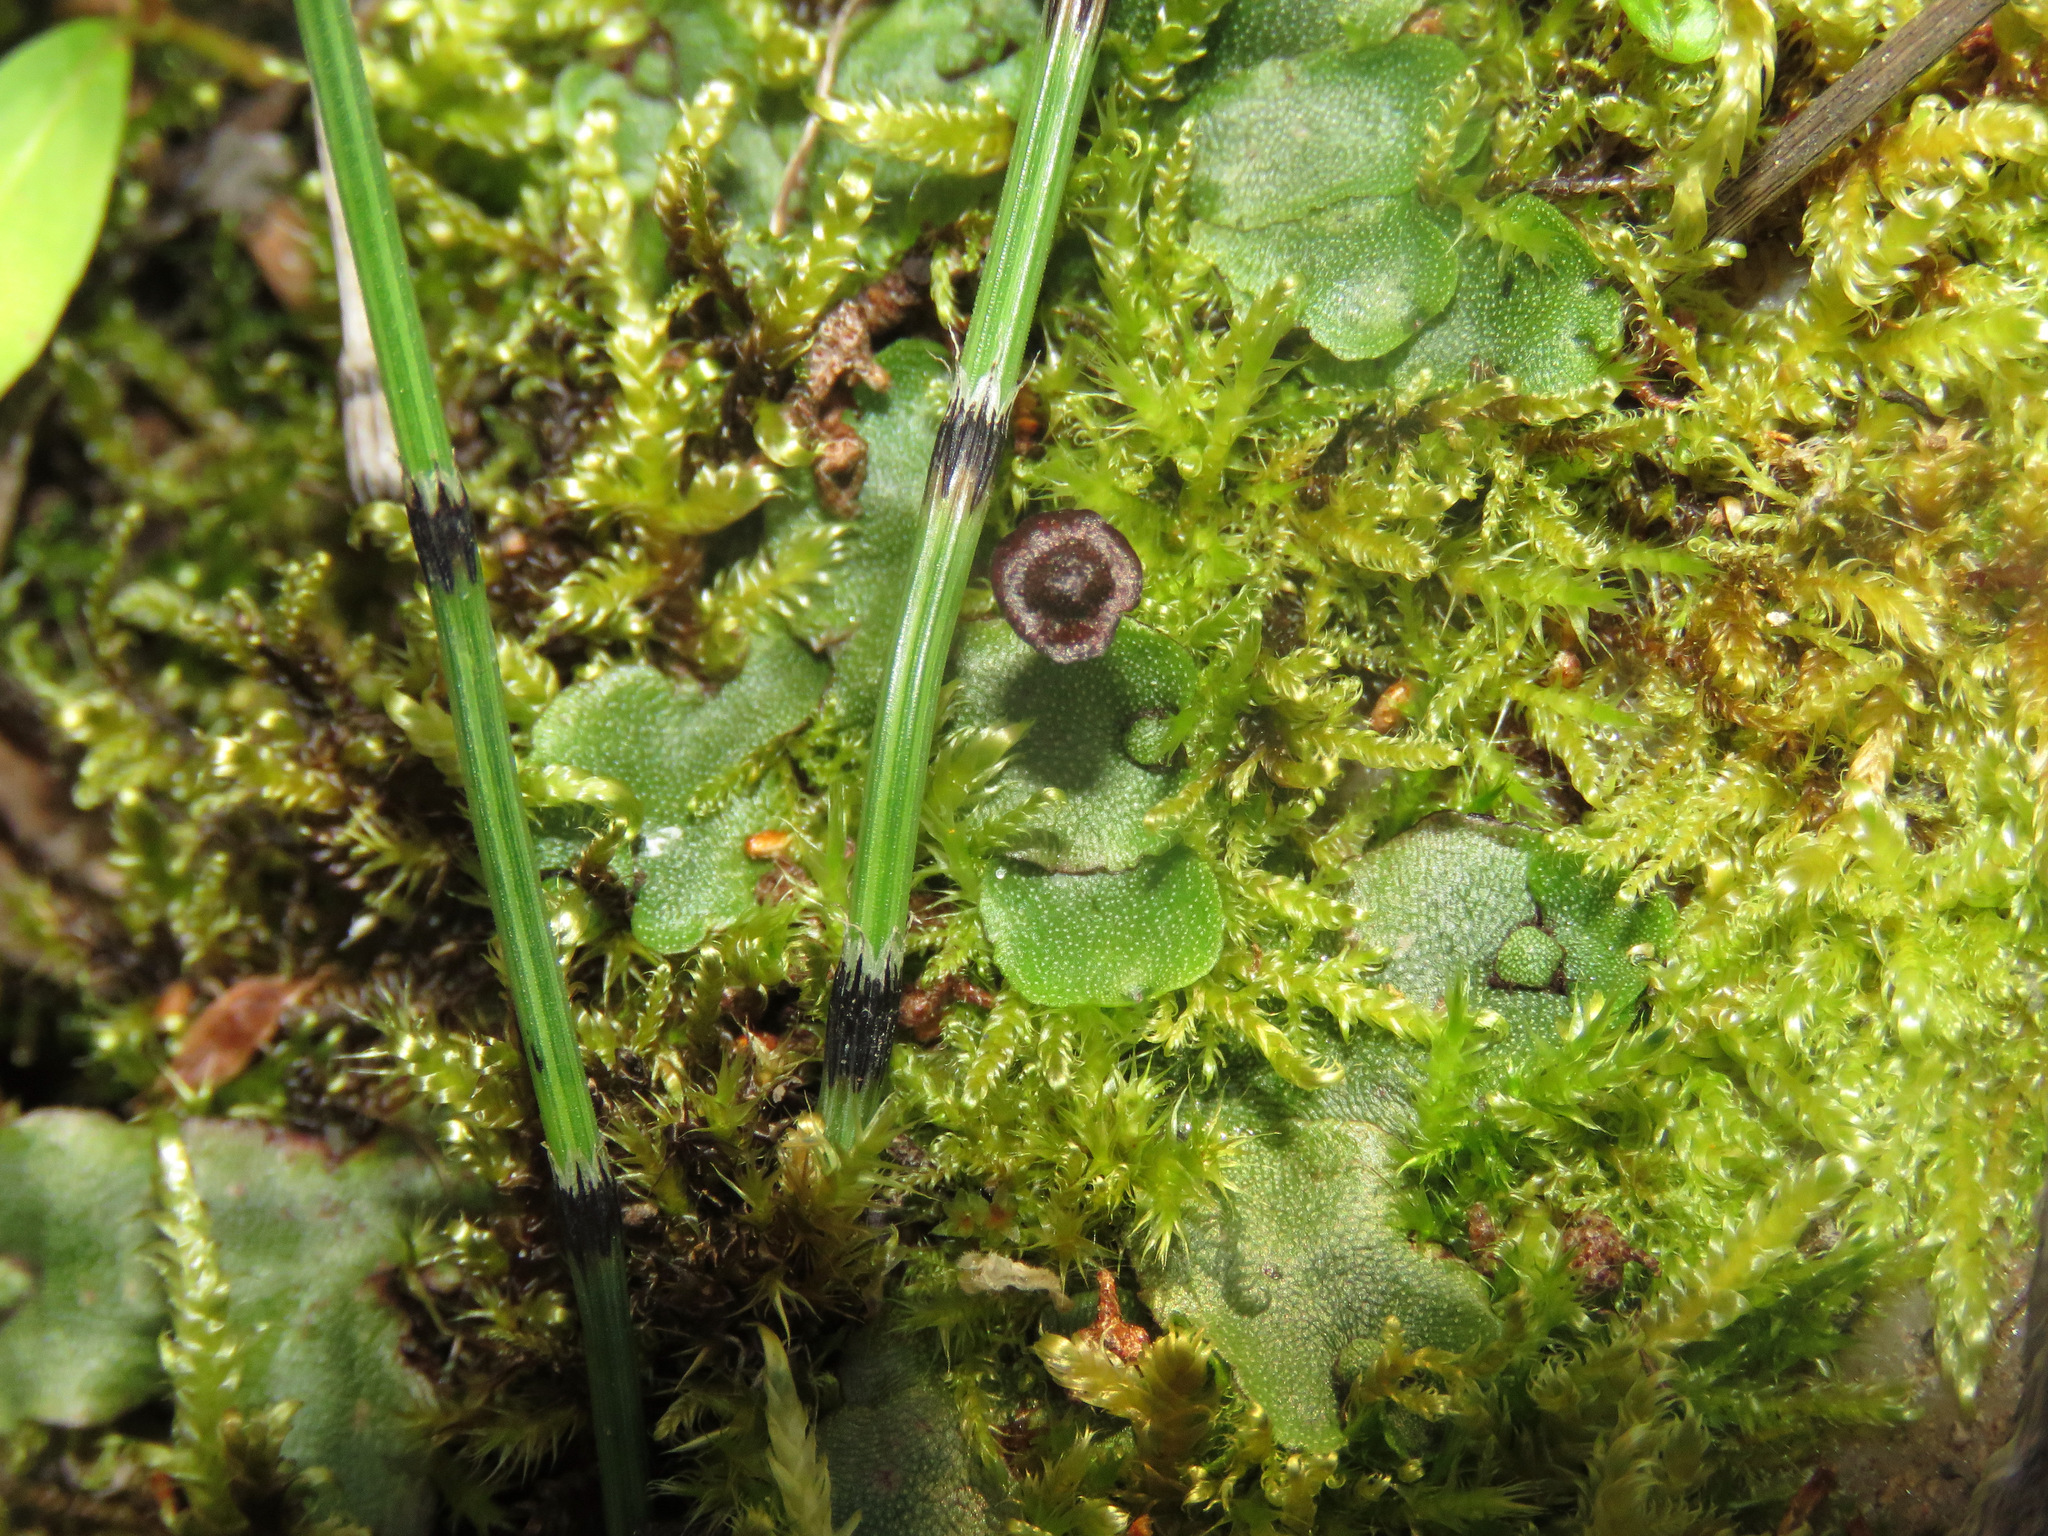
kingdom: Plantae
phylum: Marchantiophyta
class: Marchantiopsida
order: Marchantiales
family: Marchantiaceae
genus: Marchantia
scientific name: Marchantia quadrata
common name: Narrow mushroom-headed liverwort
